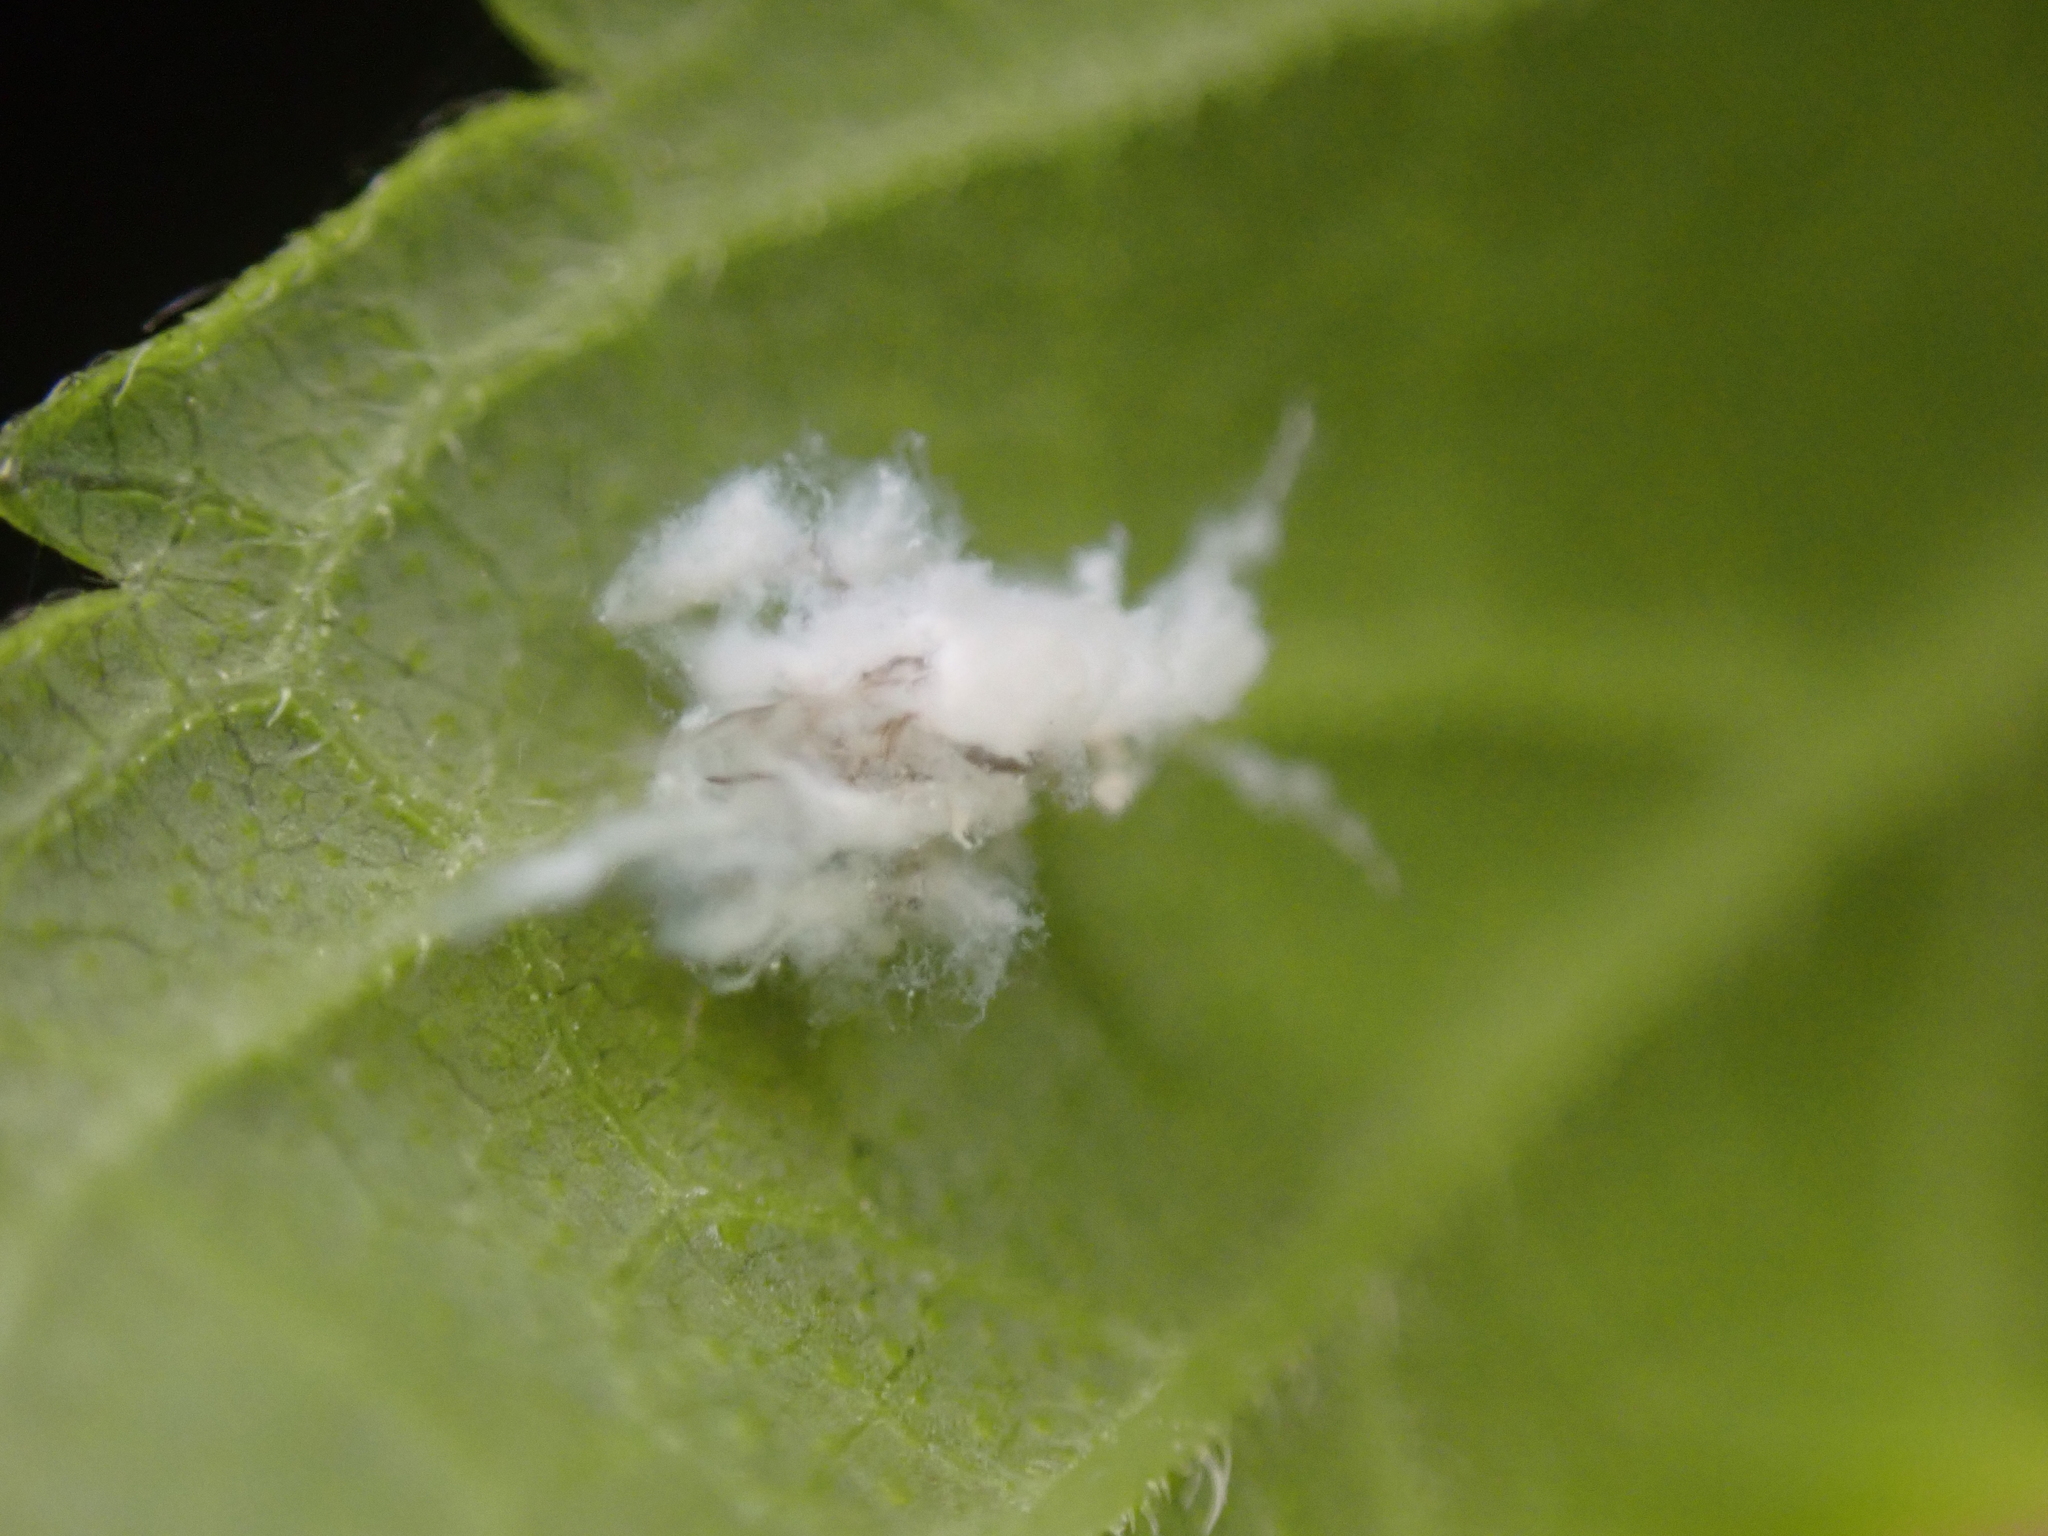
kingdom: Animalia
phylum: Arthropoda
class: Insecta
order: Hemiptera
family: Aphididae
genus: Shivaphis
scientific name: Shivaphis celti
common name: Asian wooly hackberry aphid
